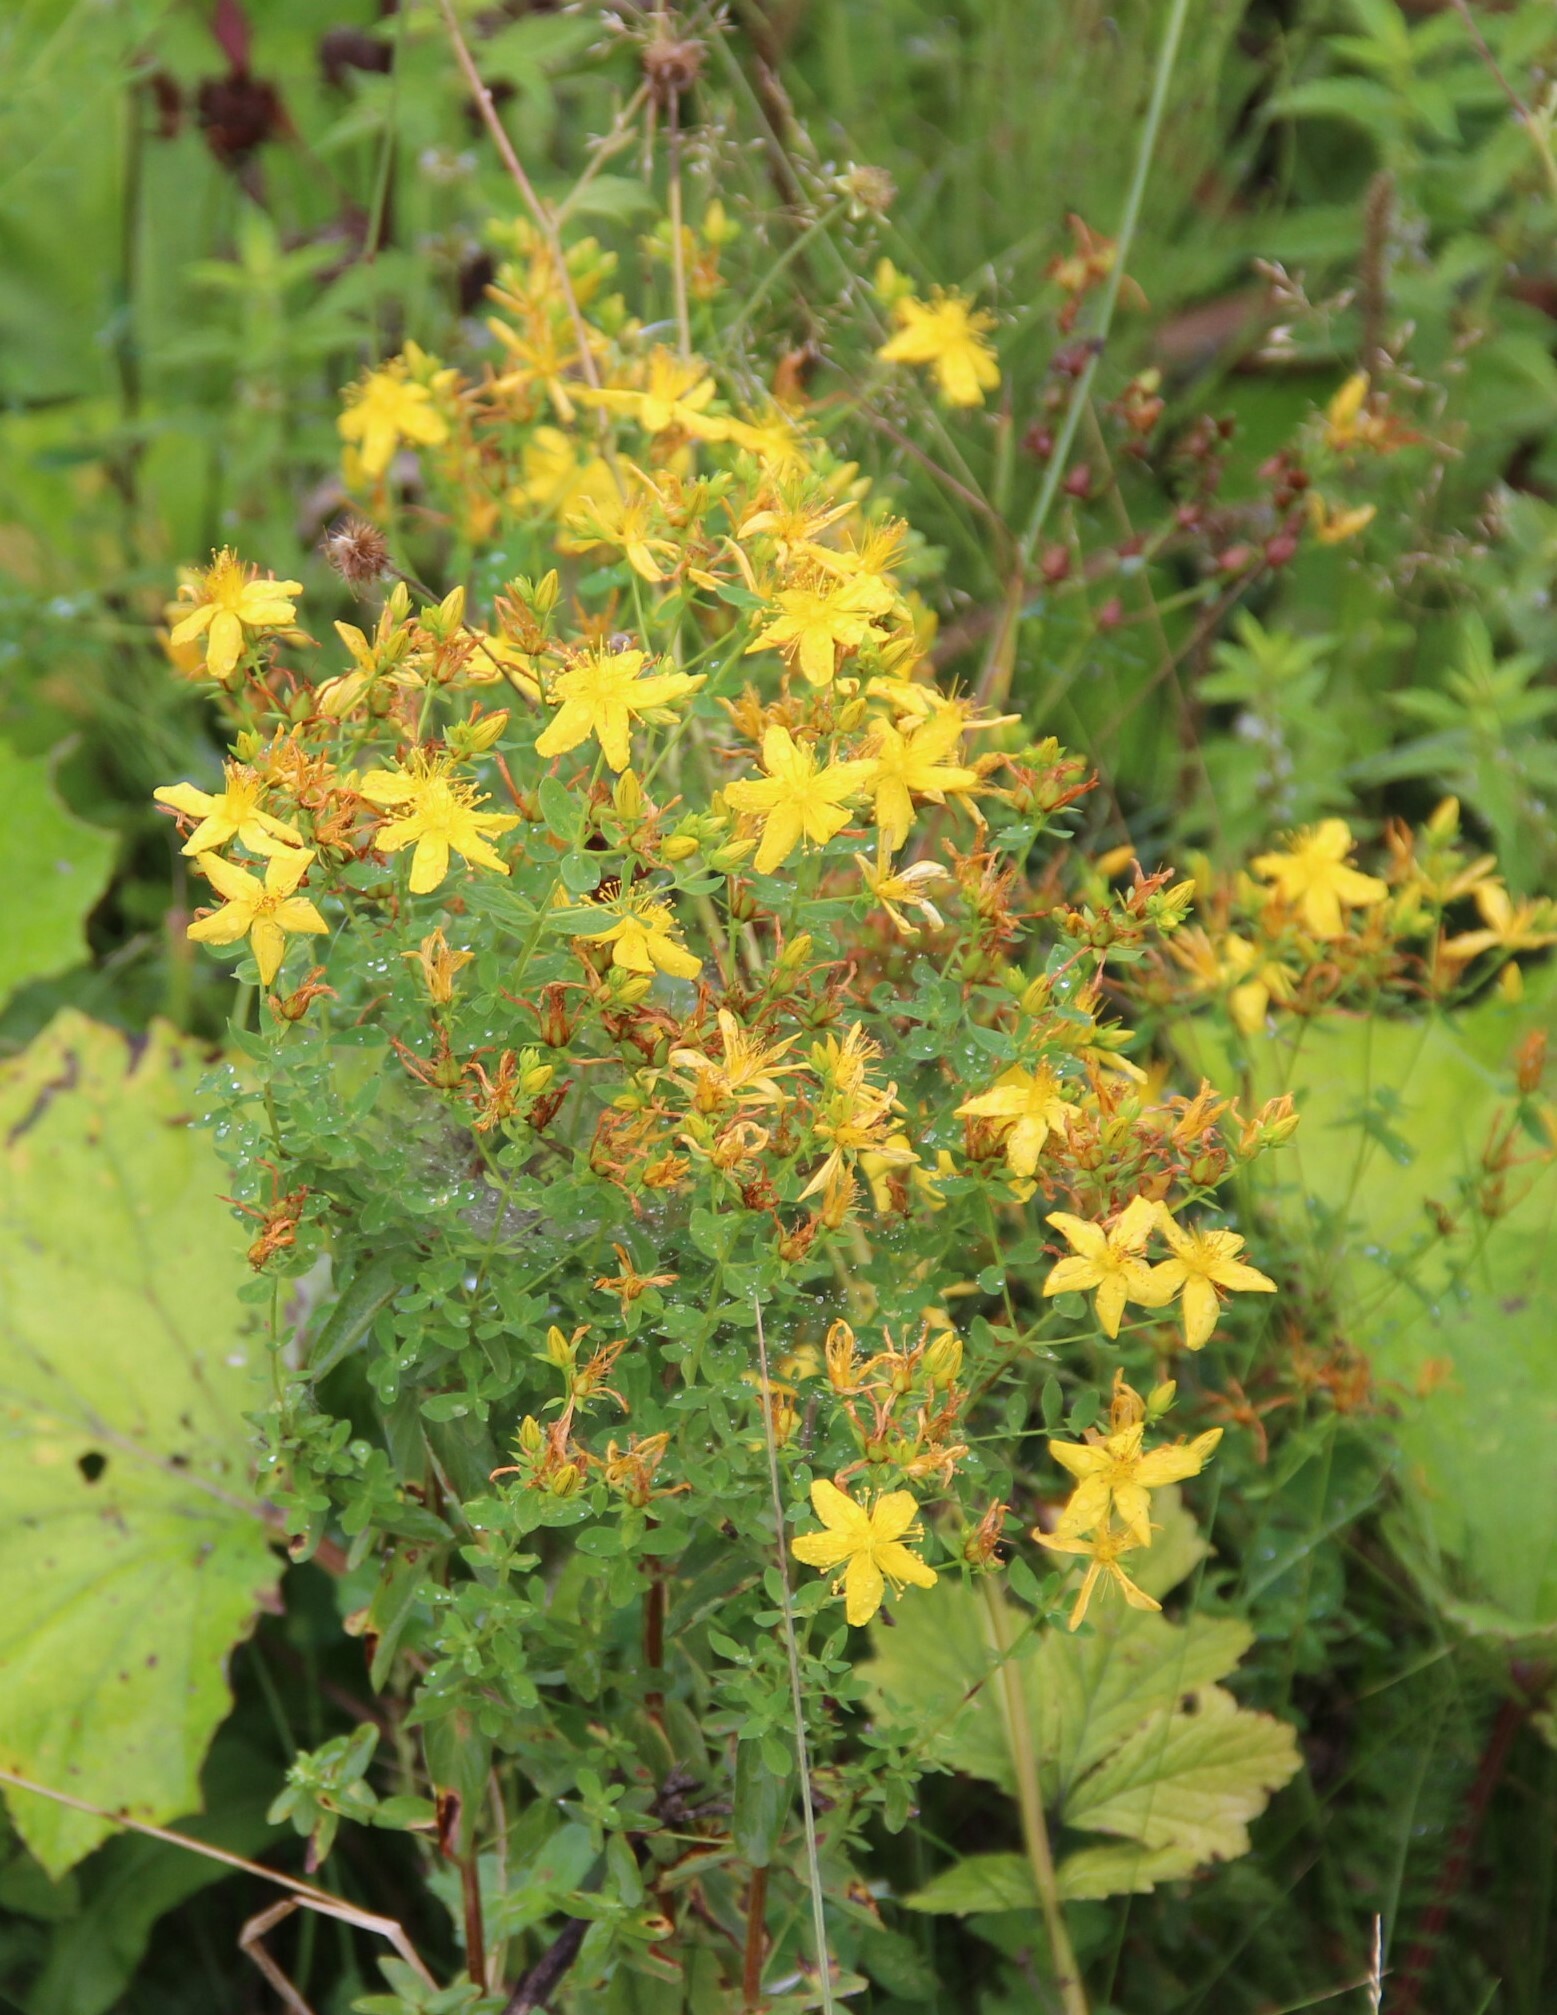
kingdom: Plantae
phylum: Tracheophyta
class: Magnoliopsida
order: Malpighiales
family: Hypericaceae
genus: Hypericum
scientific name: Hypericum perforatum
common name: Common st. johnswort
